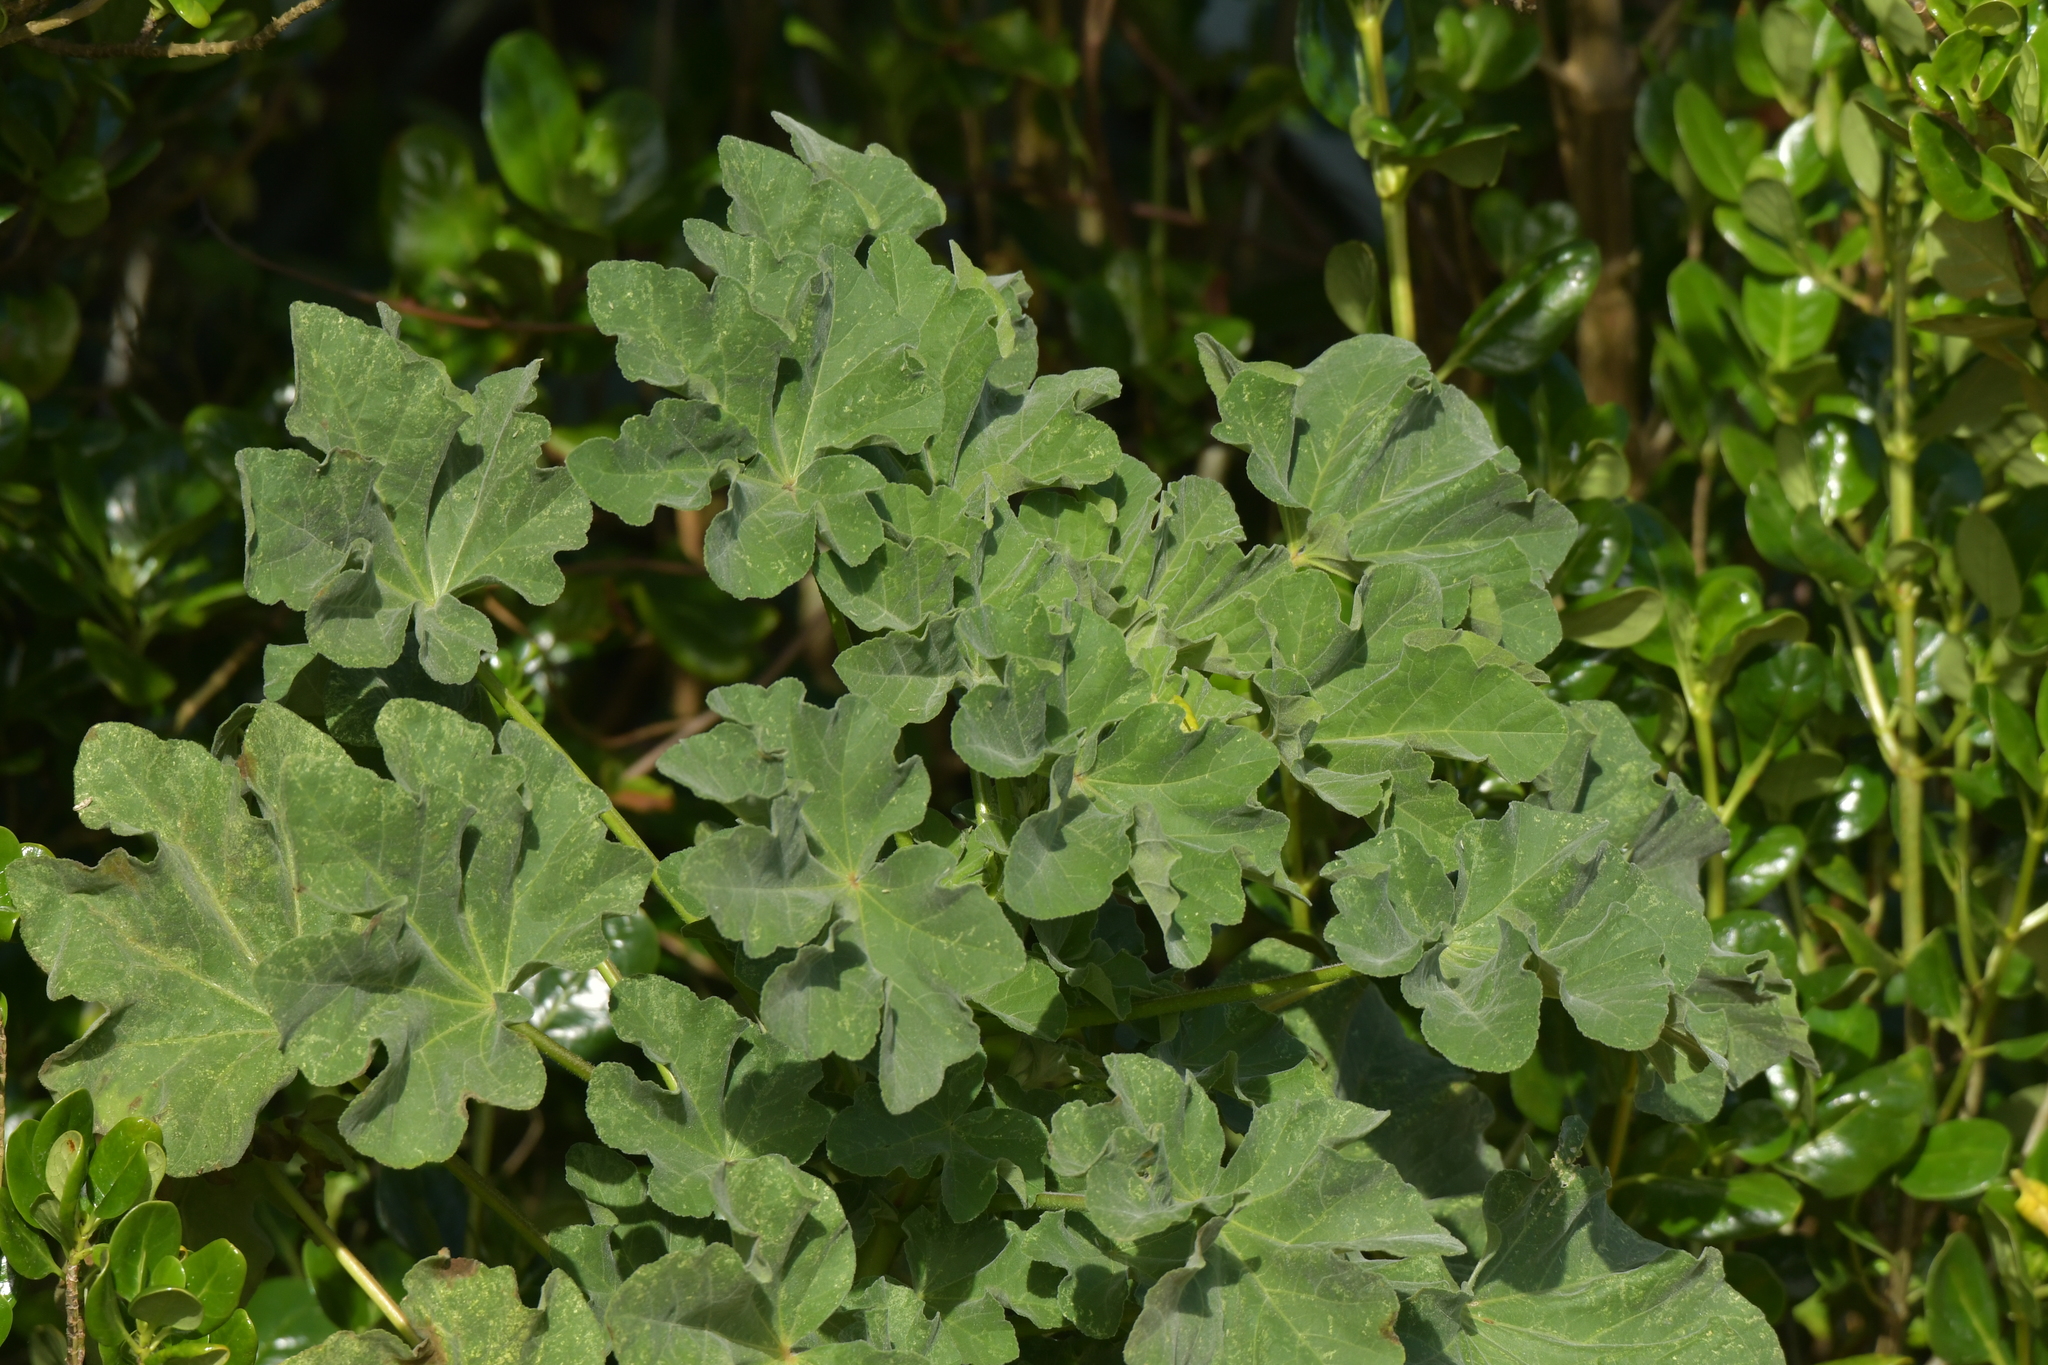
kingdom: Plantae
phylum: Tracheophyta
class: Magnoliopsida
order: Malvales
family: Malvaceae
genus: Malva
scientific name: Malva arborea
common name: Tree mallow
